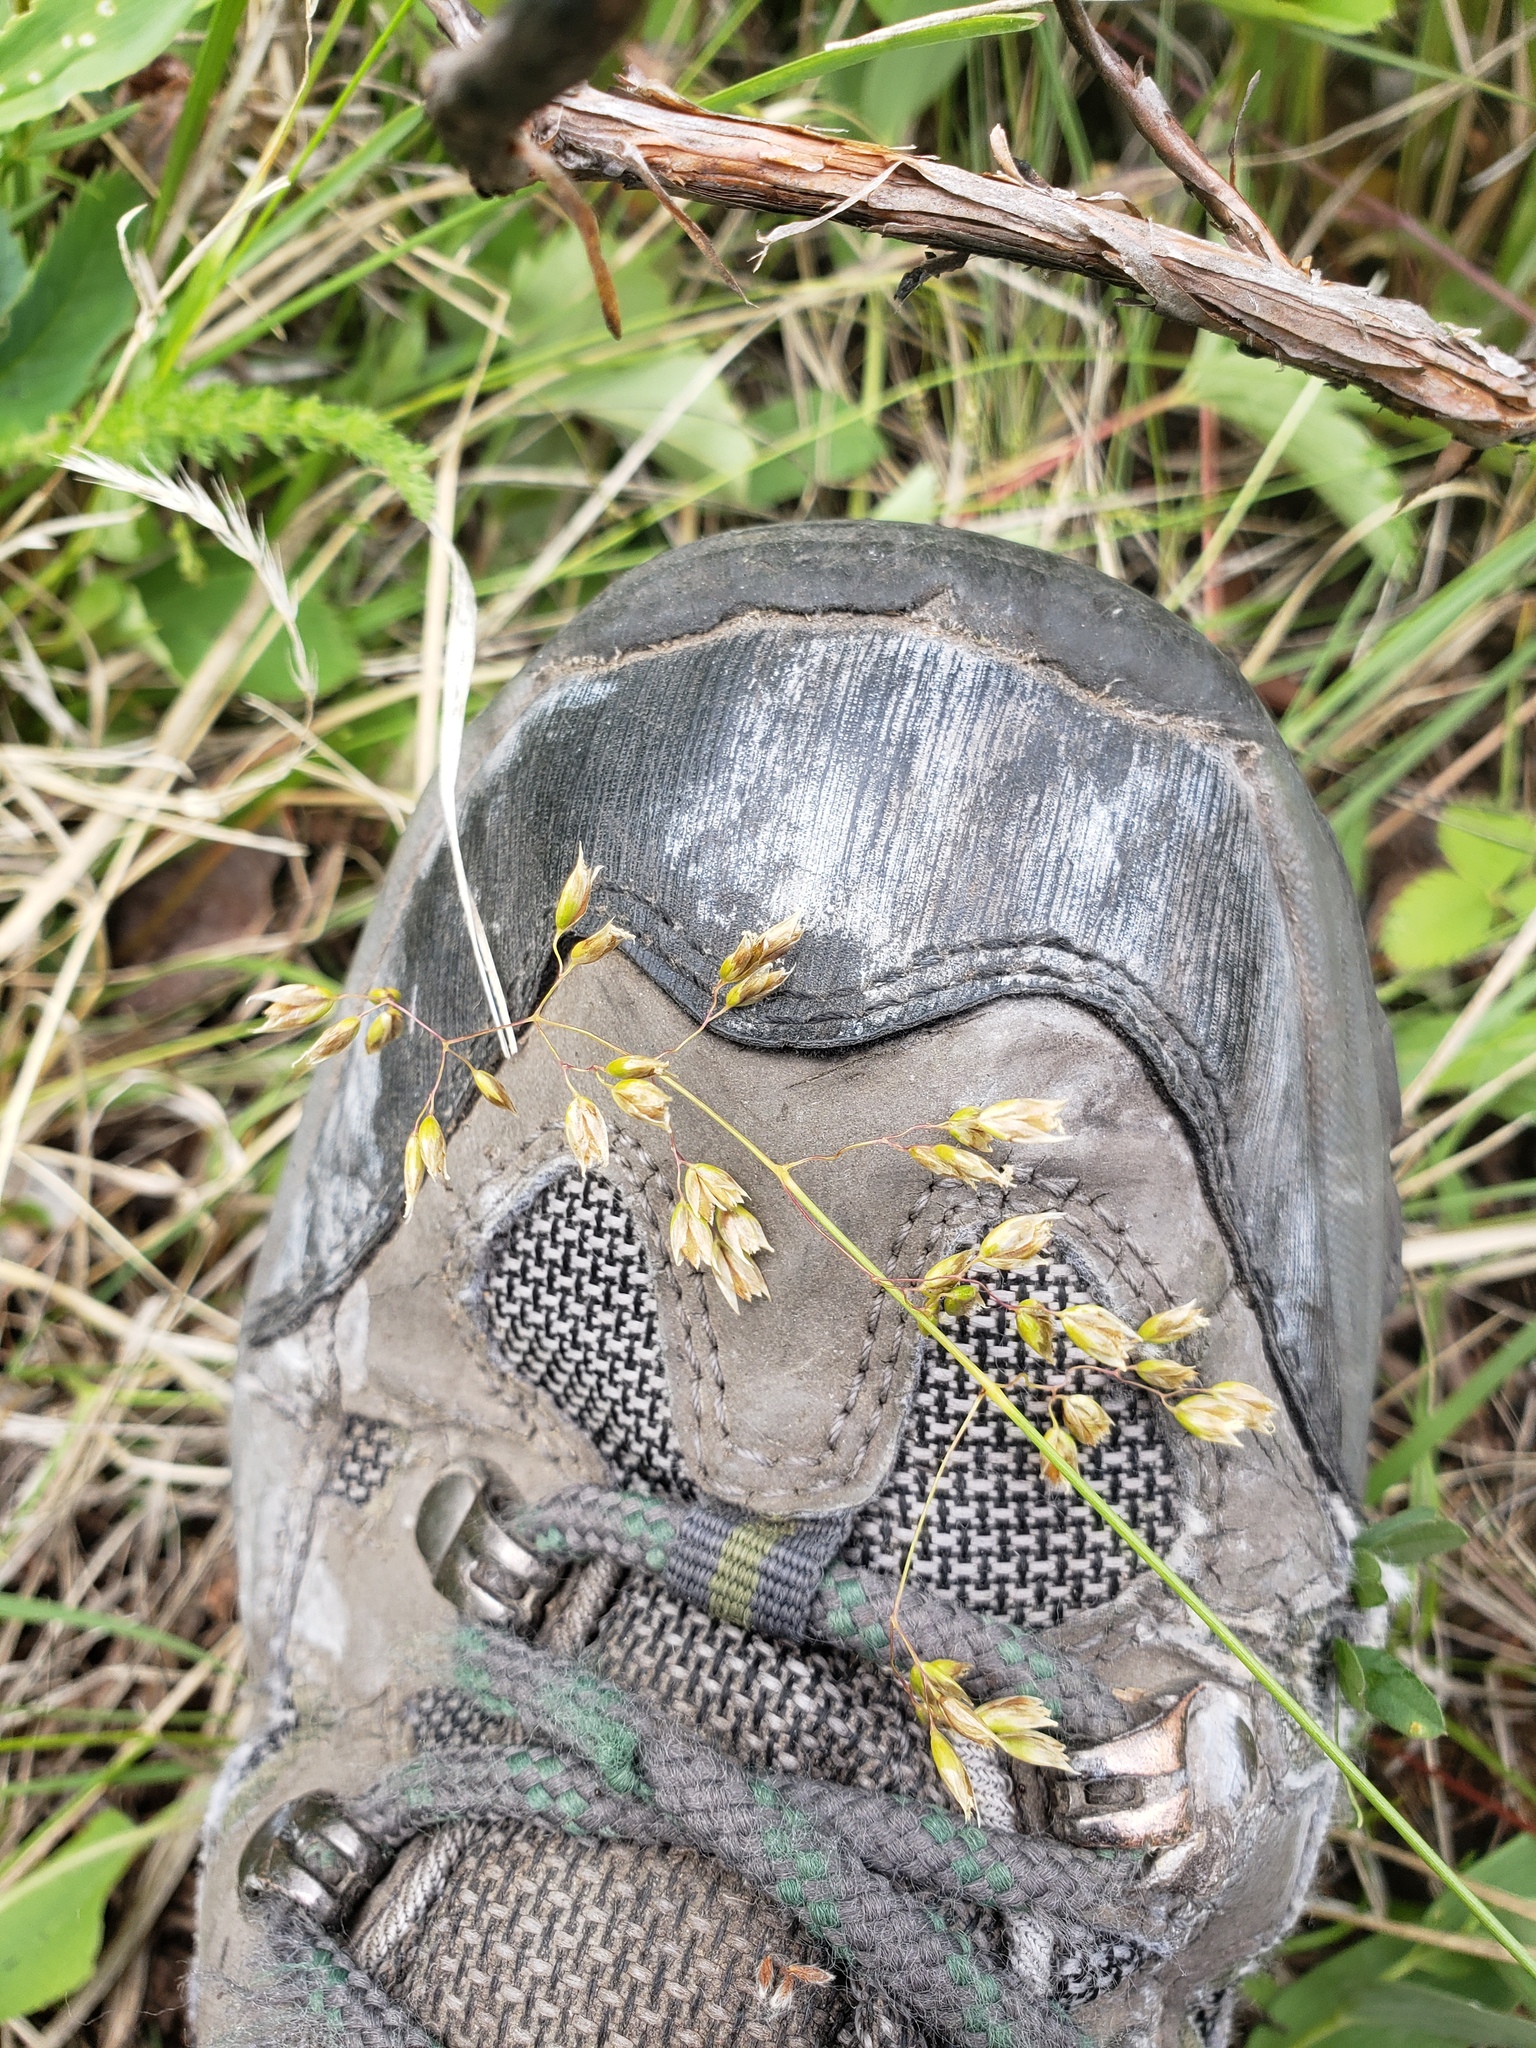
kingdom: Plantae
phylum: Tracheophyta
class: Liliopsida
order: Poales
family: Poaceae
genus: Anthoxanthum
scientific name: Anthoxanthum nitens
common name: Holy grass
